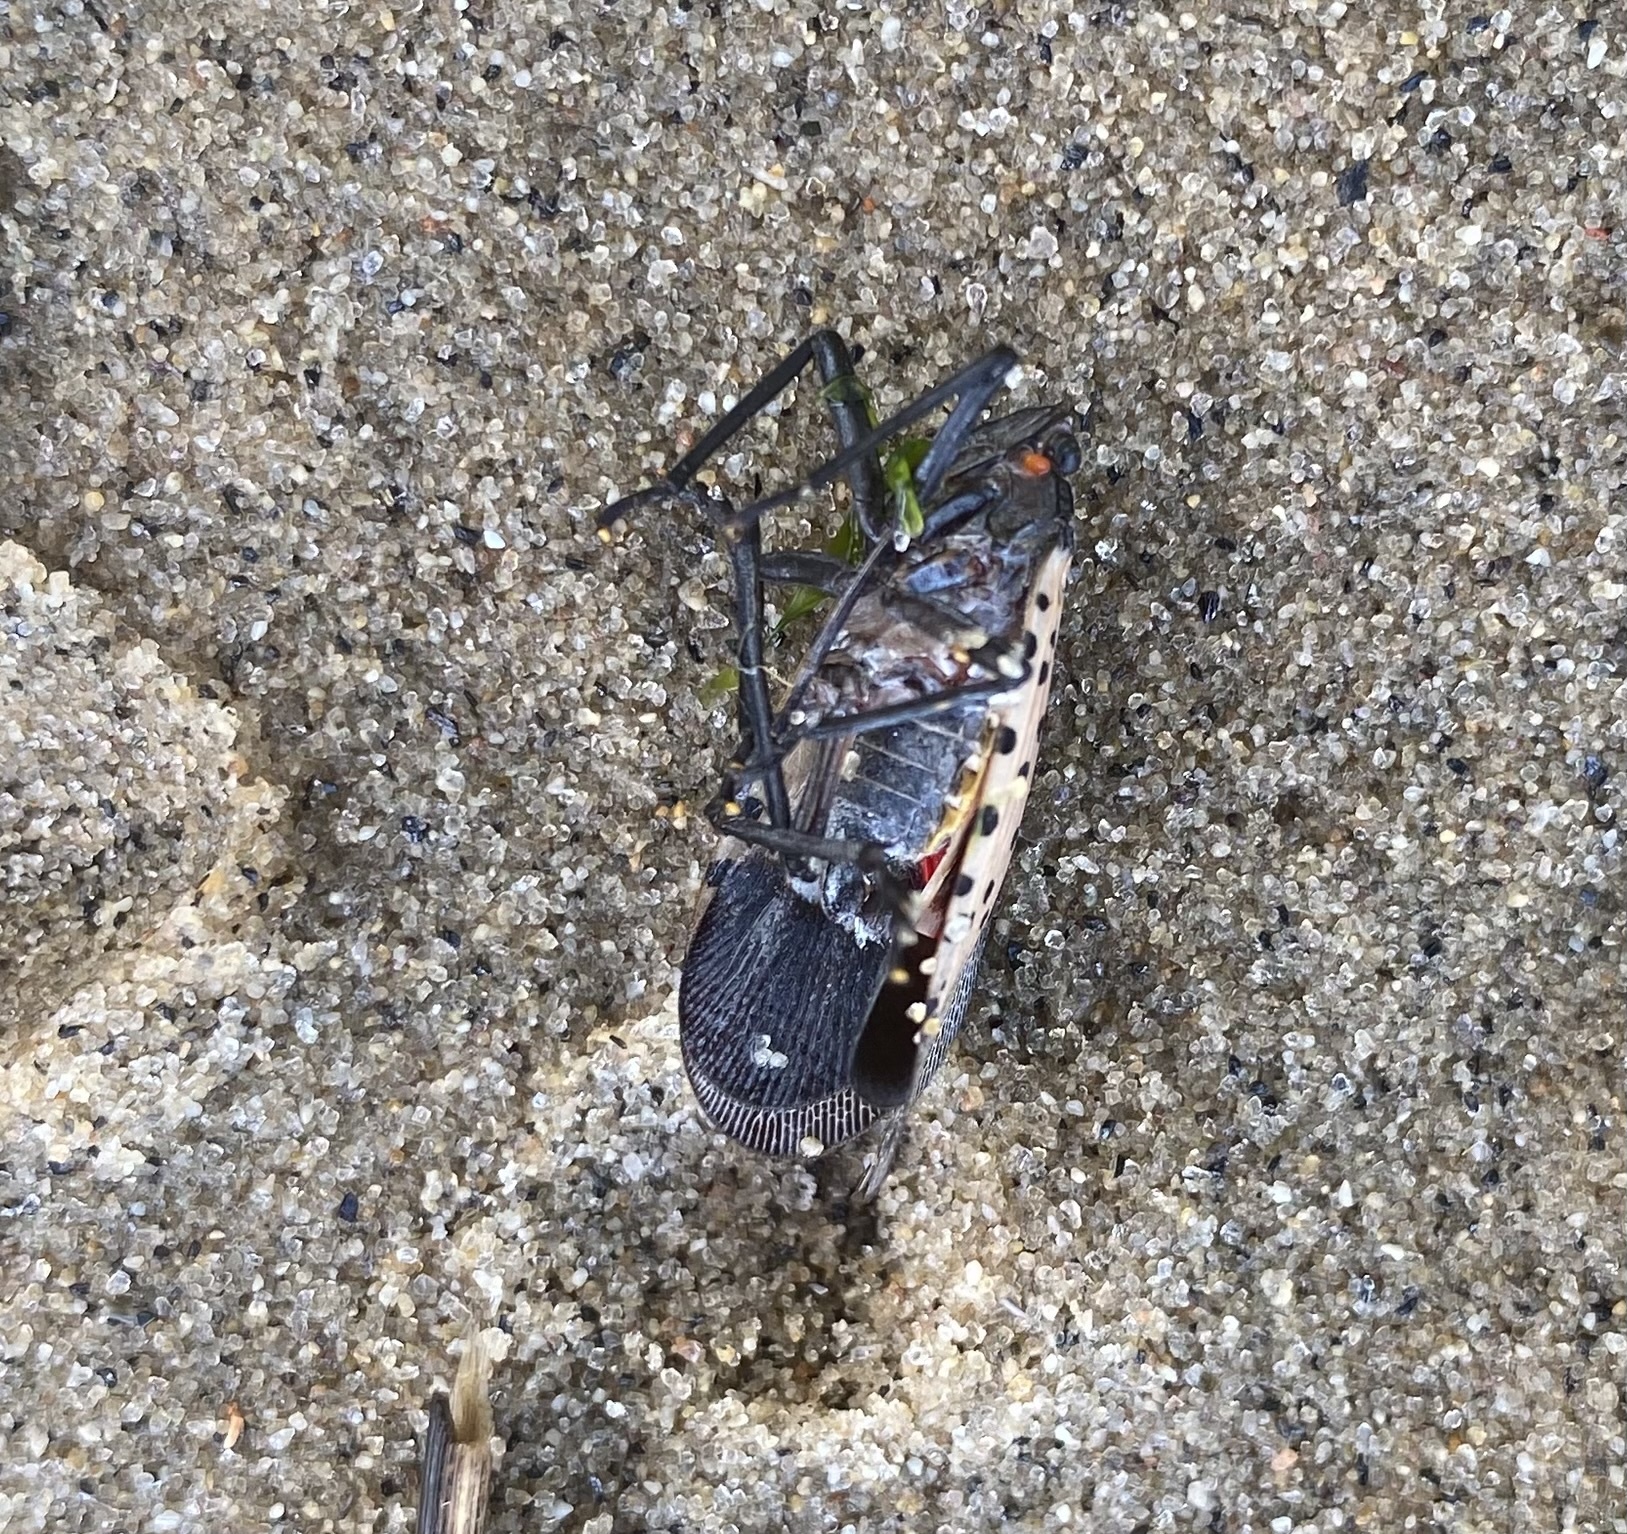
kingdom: Animalia
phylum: Arthropoda
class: Insecta
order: Hemiptera
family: Fulgoridae
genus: Lycorma
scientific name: Lycorma delicatula
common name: Spotted lanternfly
